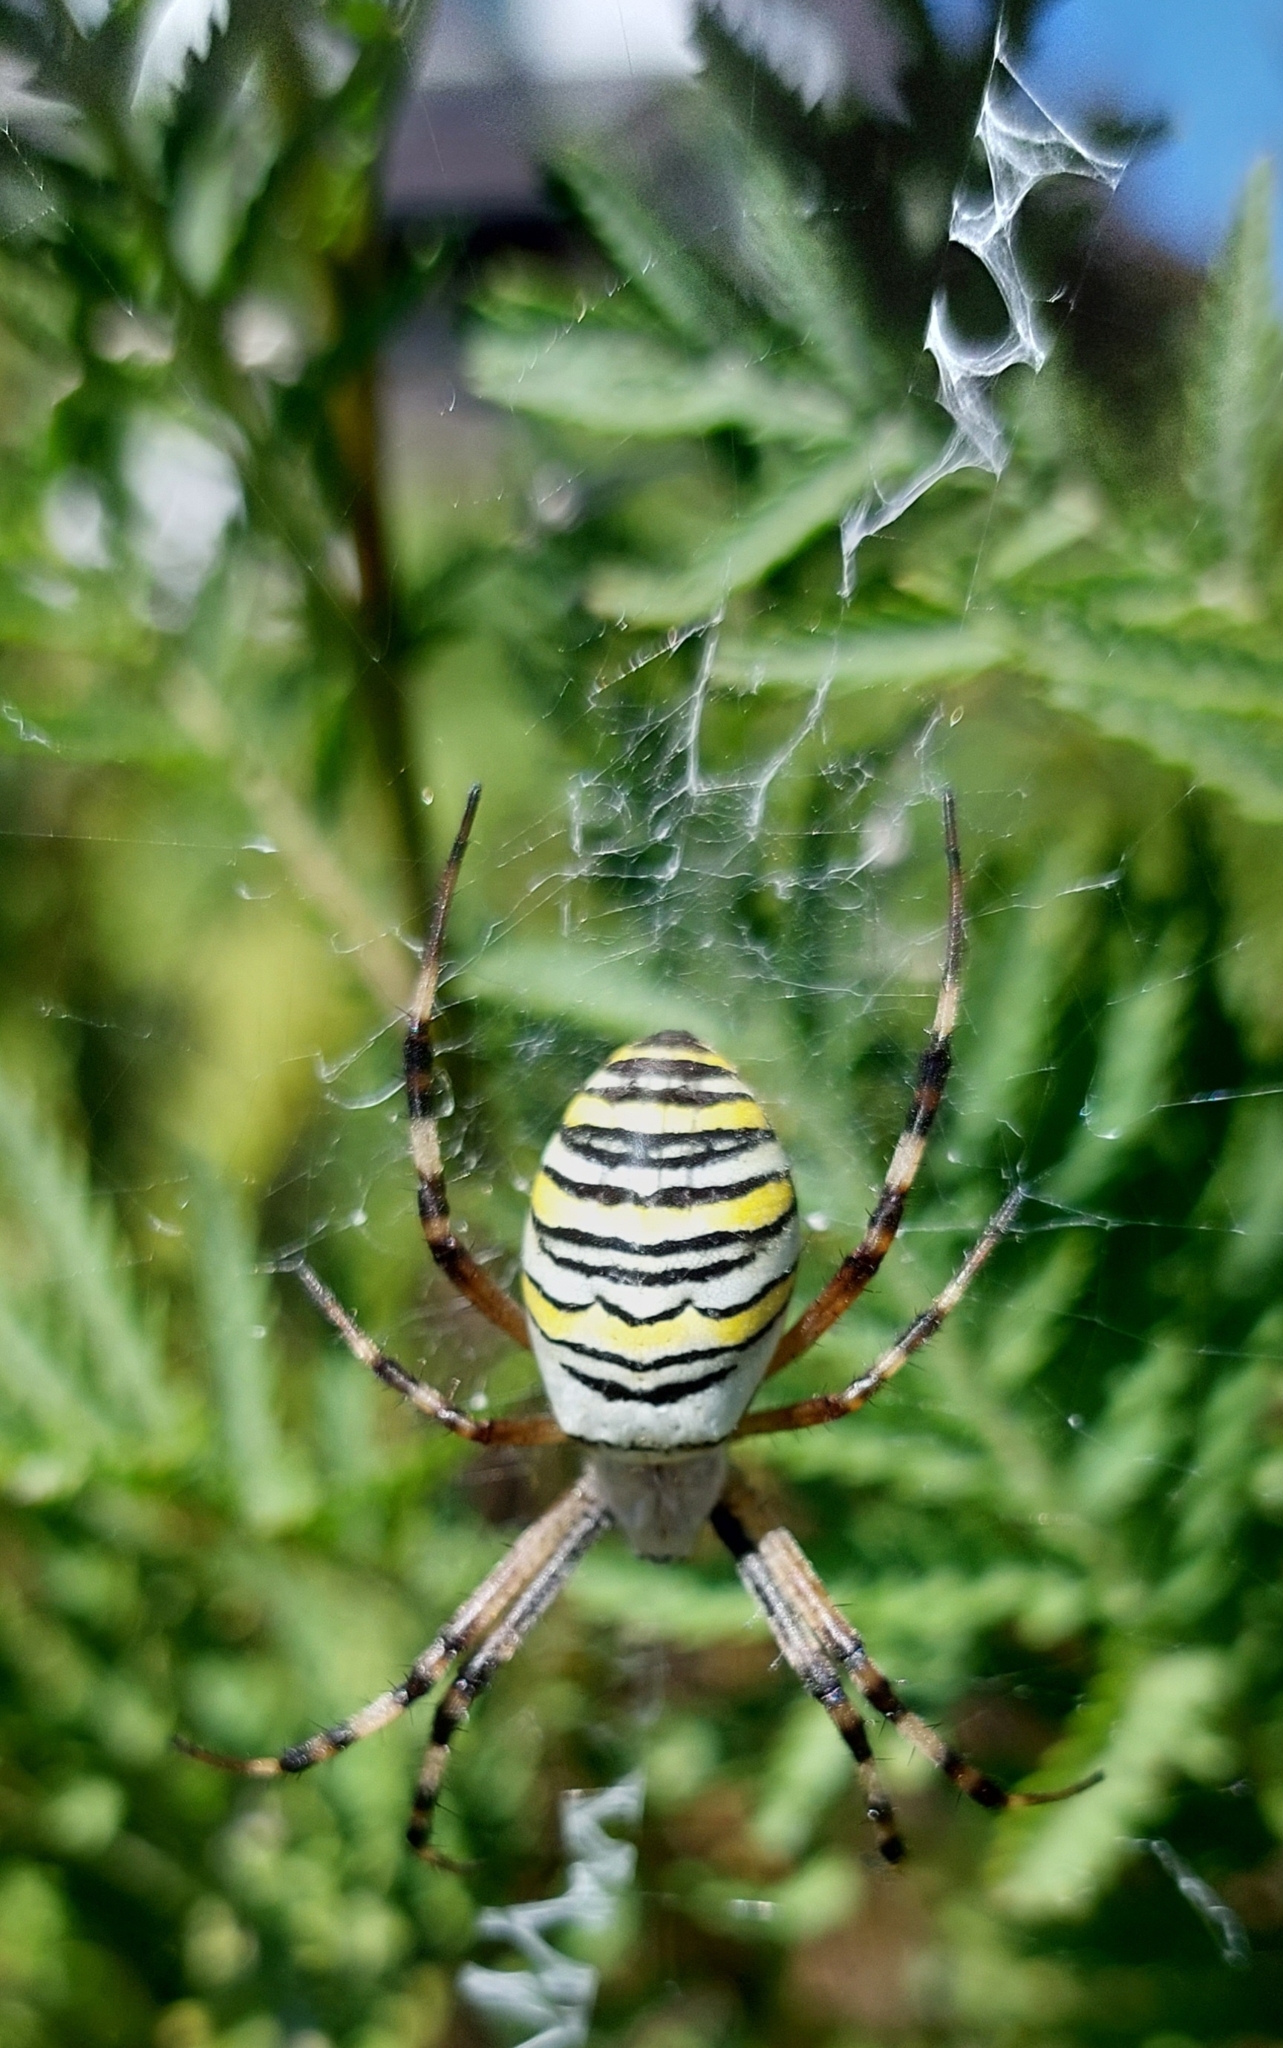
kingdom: Animalia
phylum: Arthropoda
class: Arachnida
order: Araneae
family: Araneidae
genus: Argiope
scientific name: Argiope bruennichi
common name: Wasp spider
